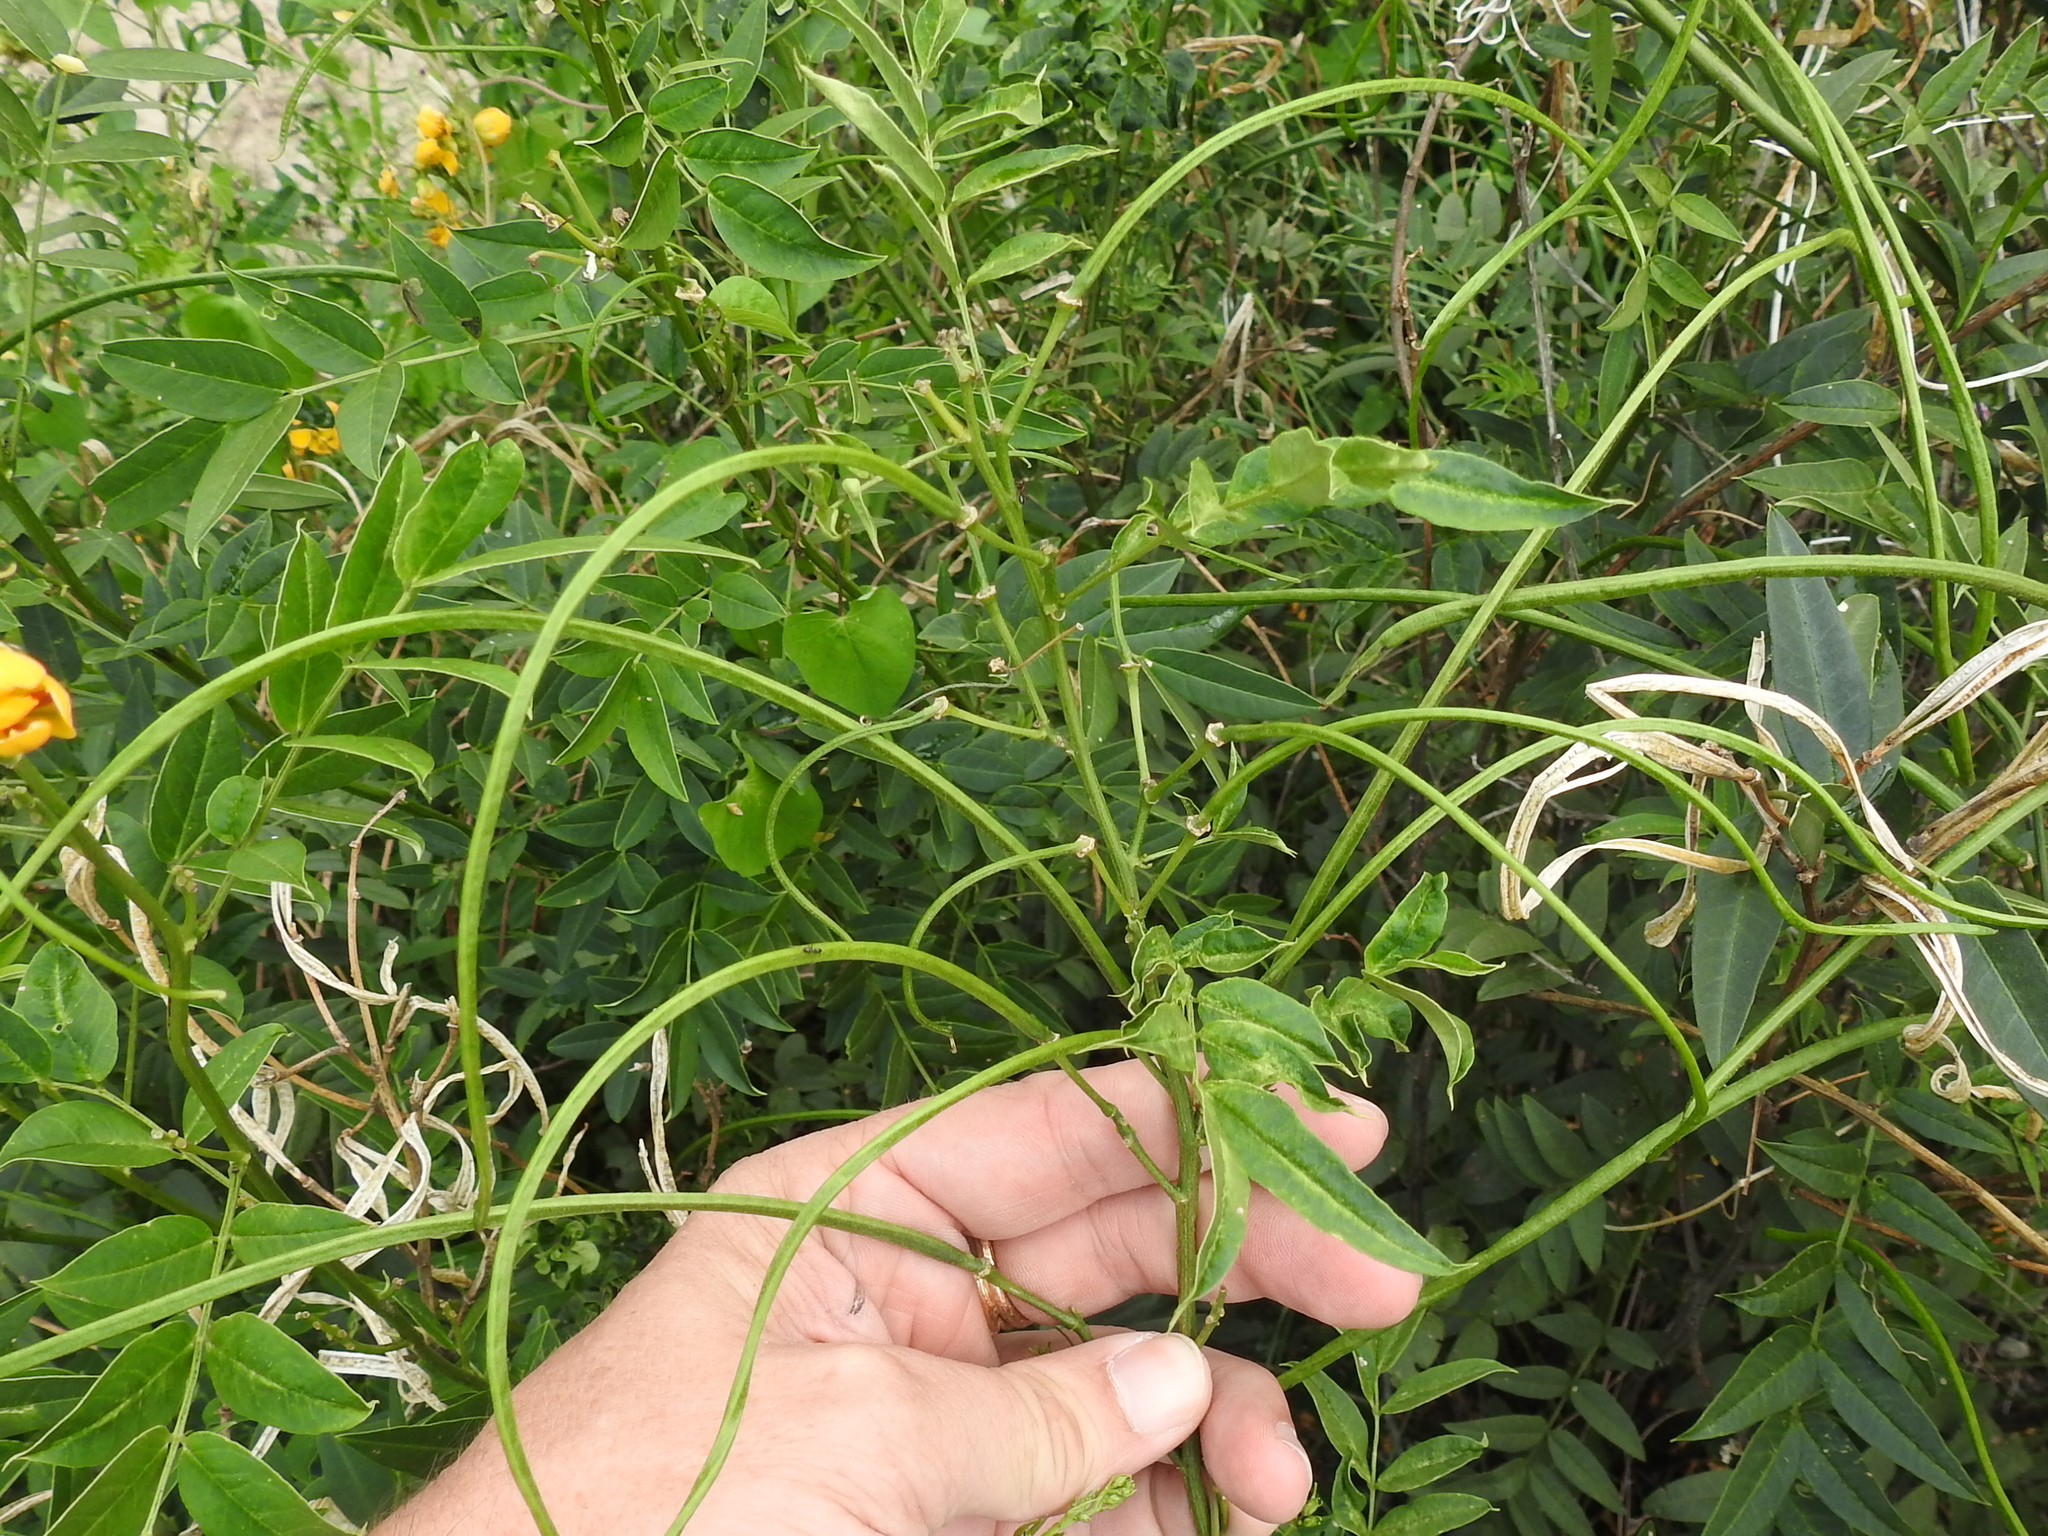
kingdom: Plantae
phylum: Tracheophyta
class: Magnoliopsida
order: Fabales
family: Fabaceae
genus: Senna
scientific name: Senna hirsuta
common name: Woolly senna
